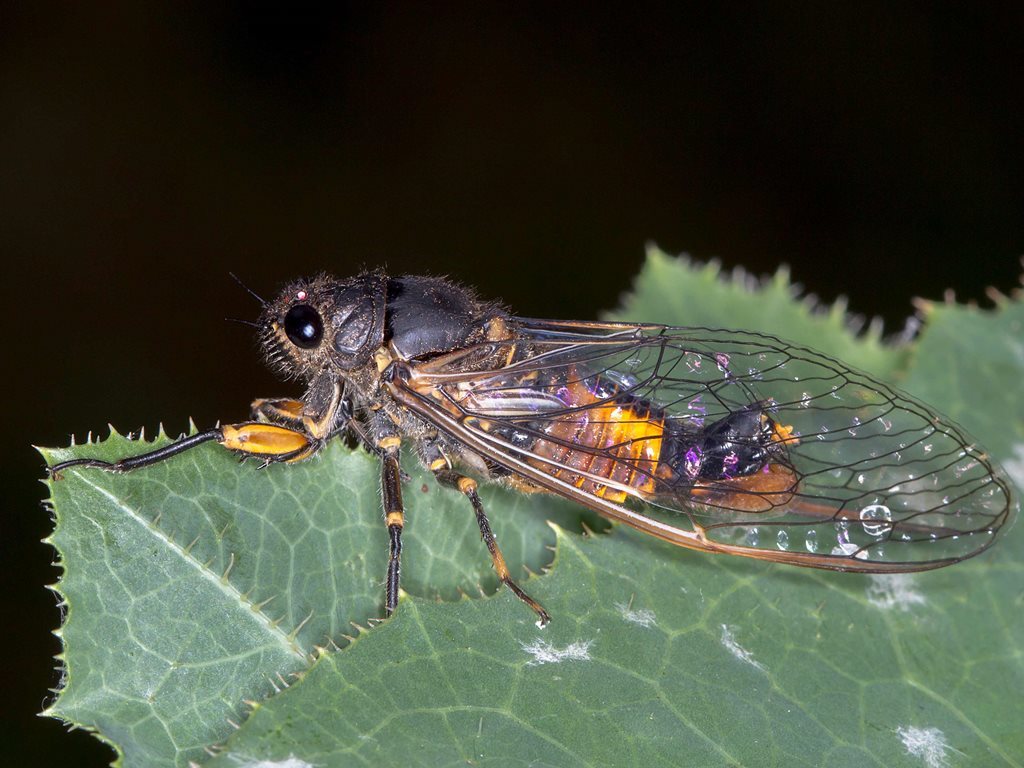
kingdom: Animalia
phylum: Arthropoda
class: Insecta
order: Hemiptera
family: Cicadidae
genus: Yoyetta
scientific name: Yoyetta robertsonae
